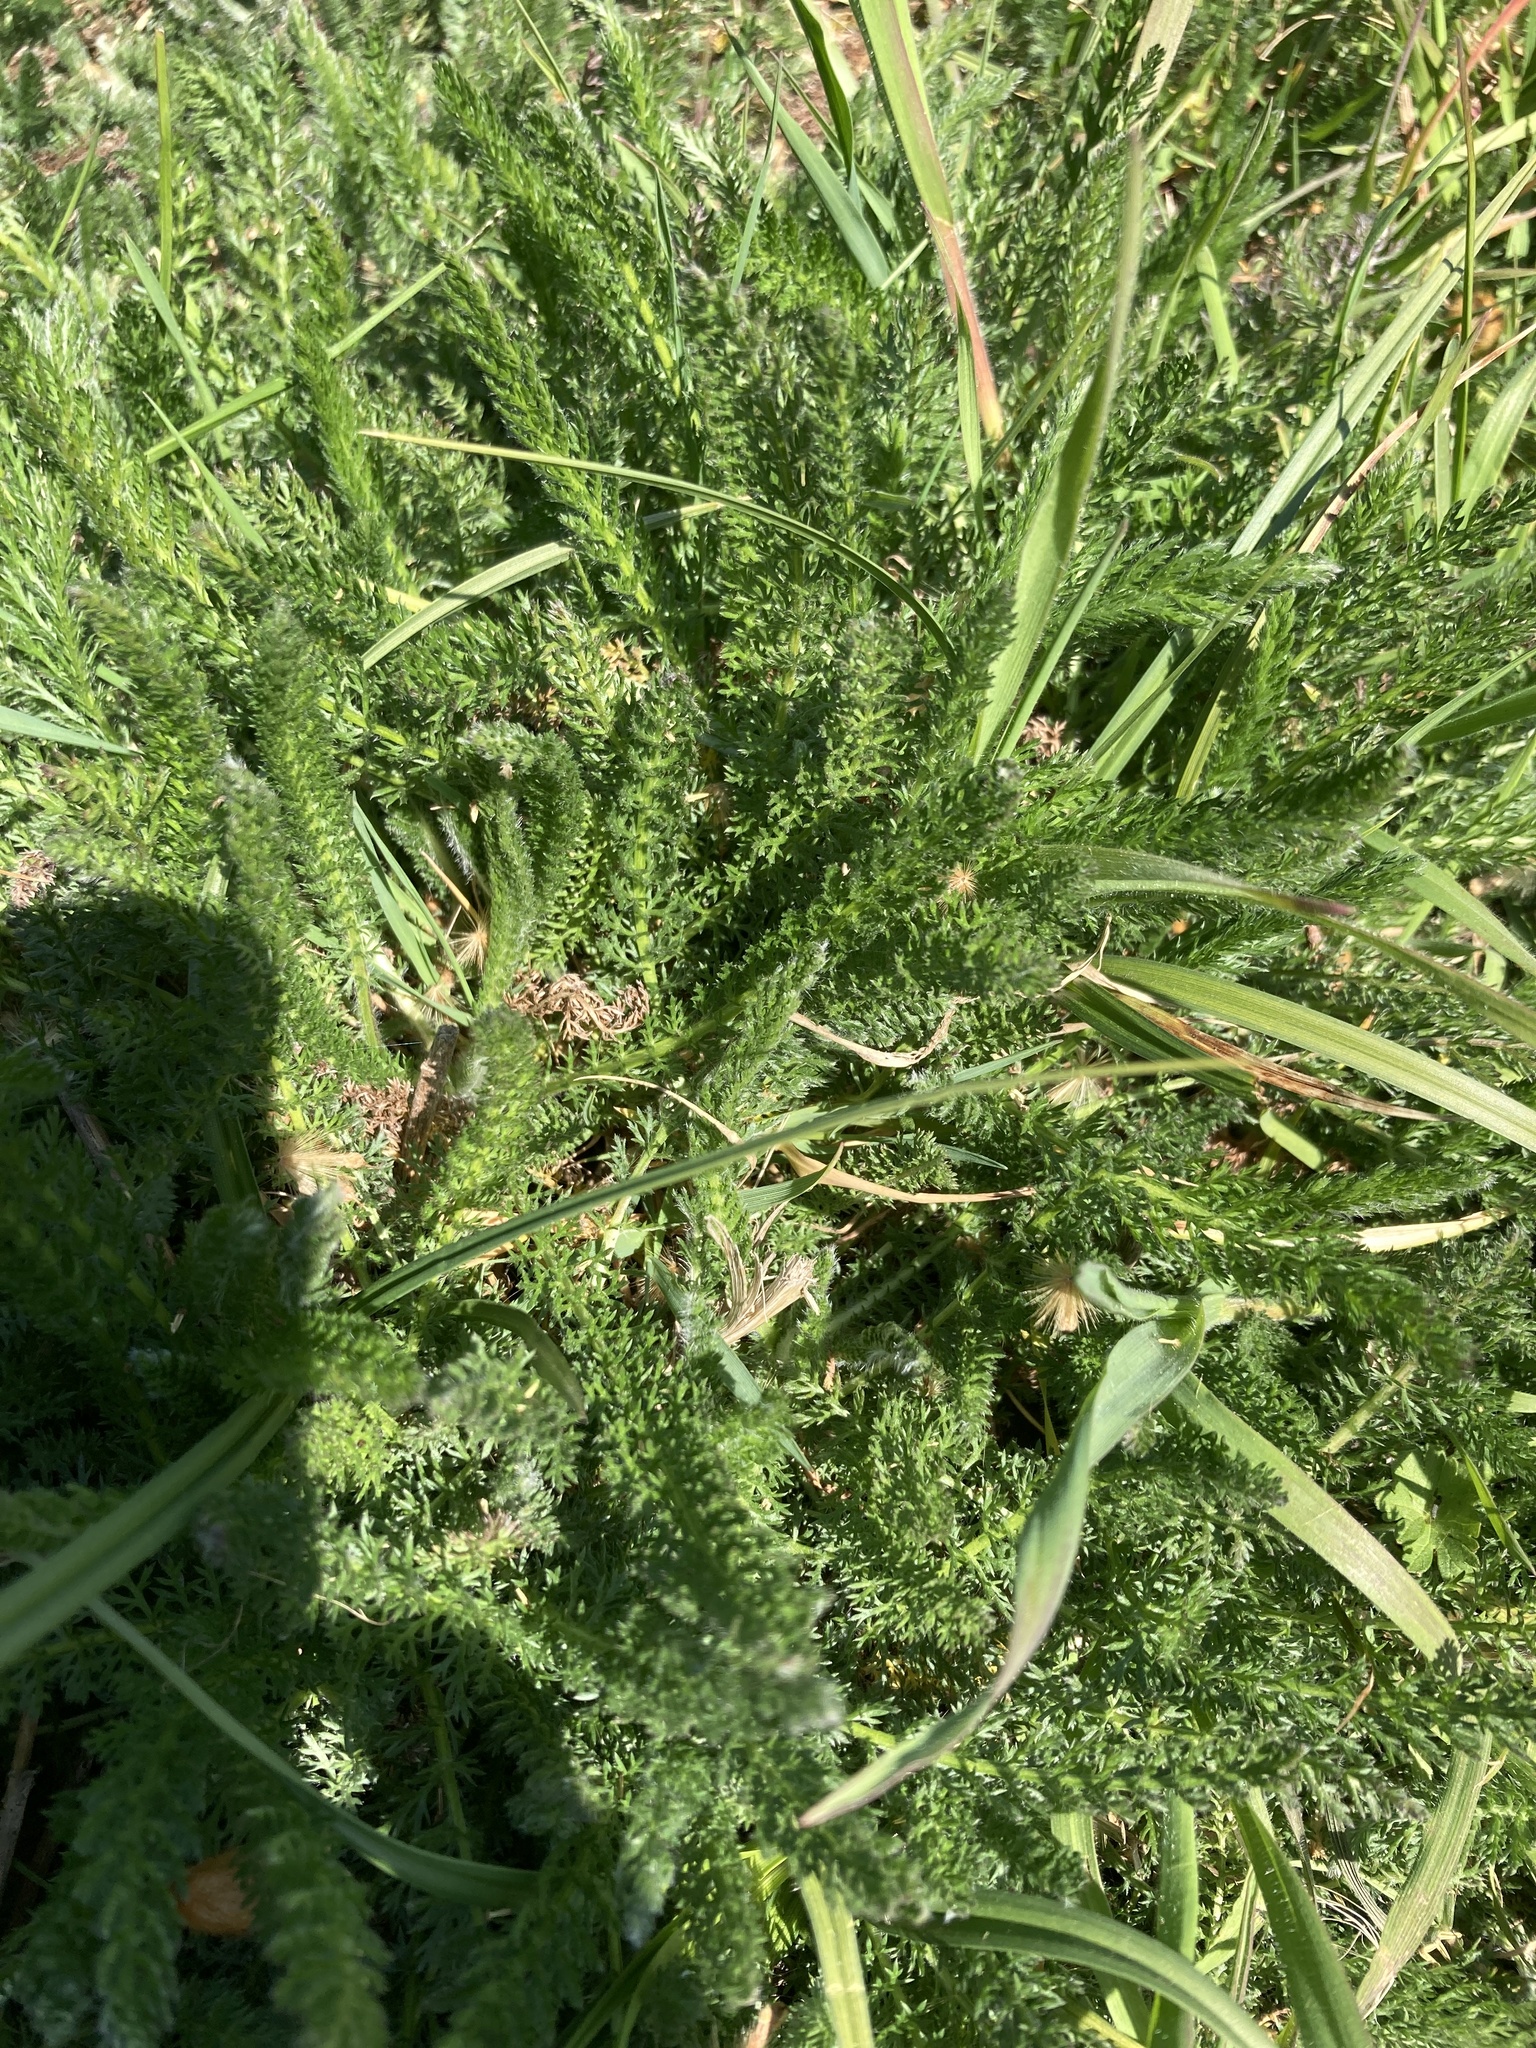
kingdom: Plantae
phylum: Tracheophyta
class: Magnoliopsida
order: Asterales
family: Asteraceae
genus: Achillea
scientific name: Achillea millefolium
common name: Yarrow
